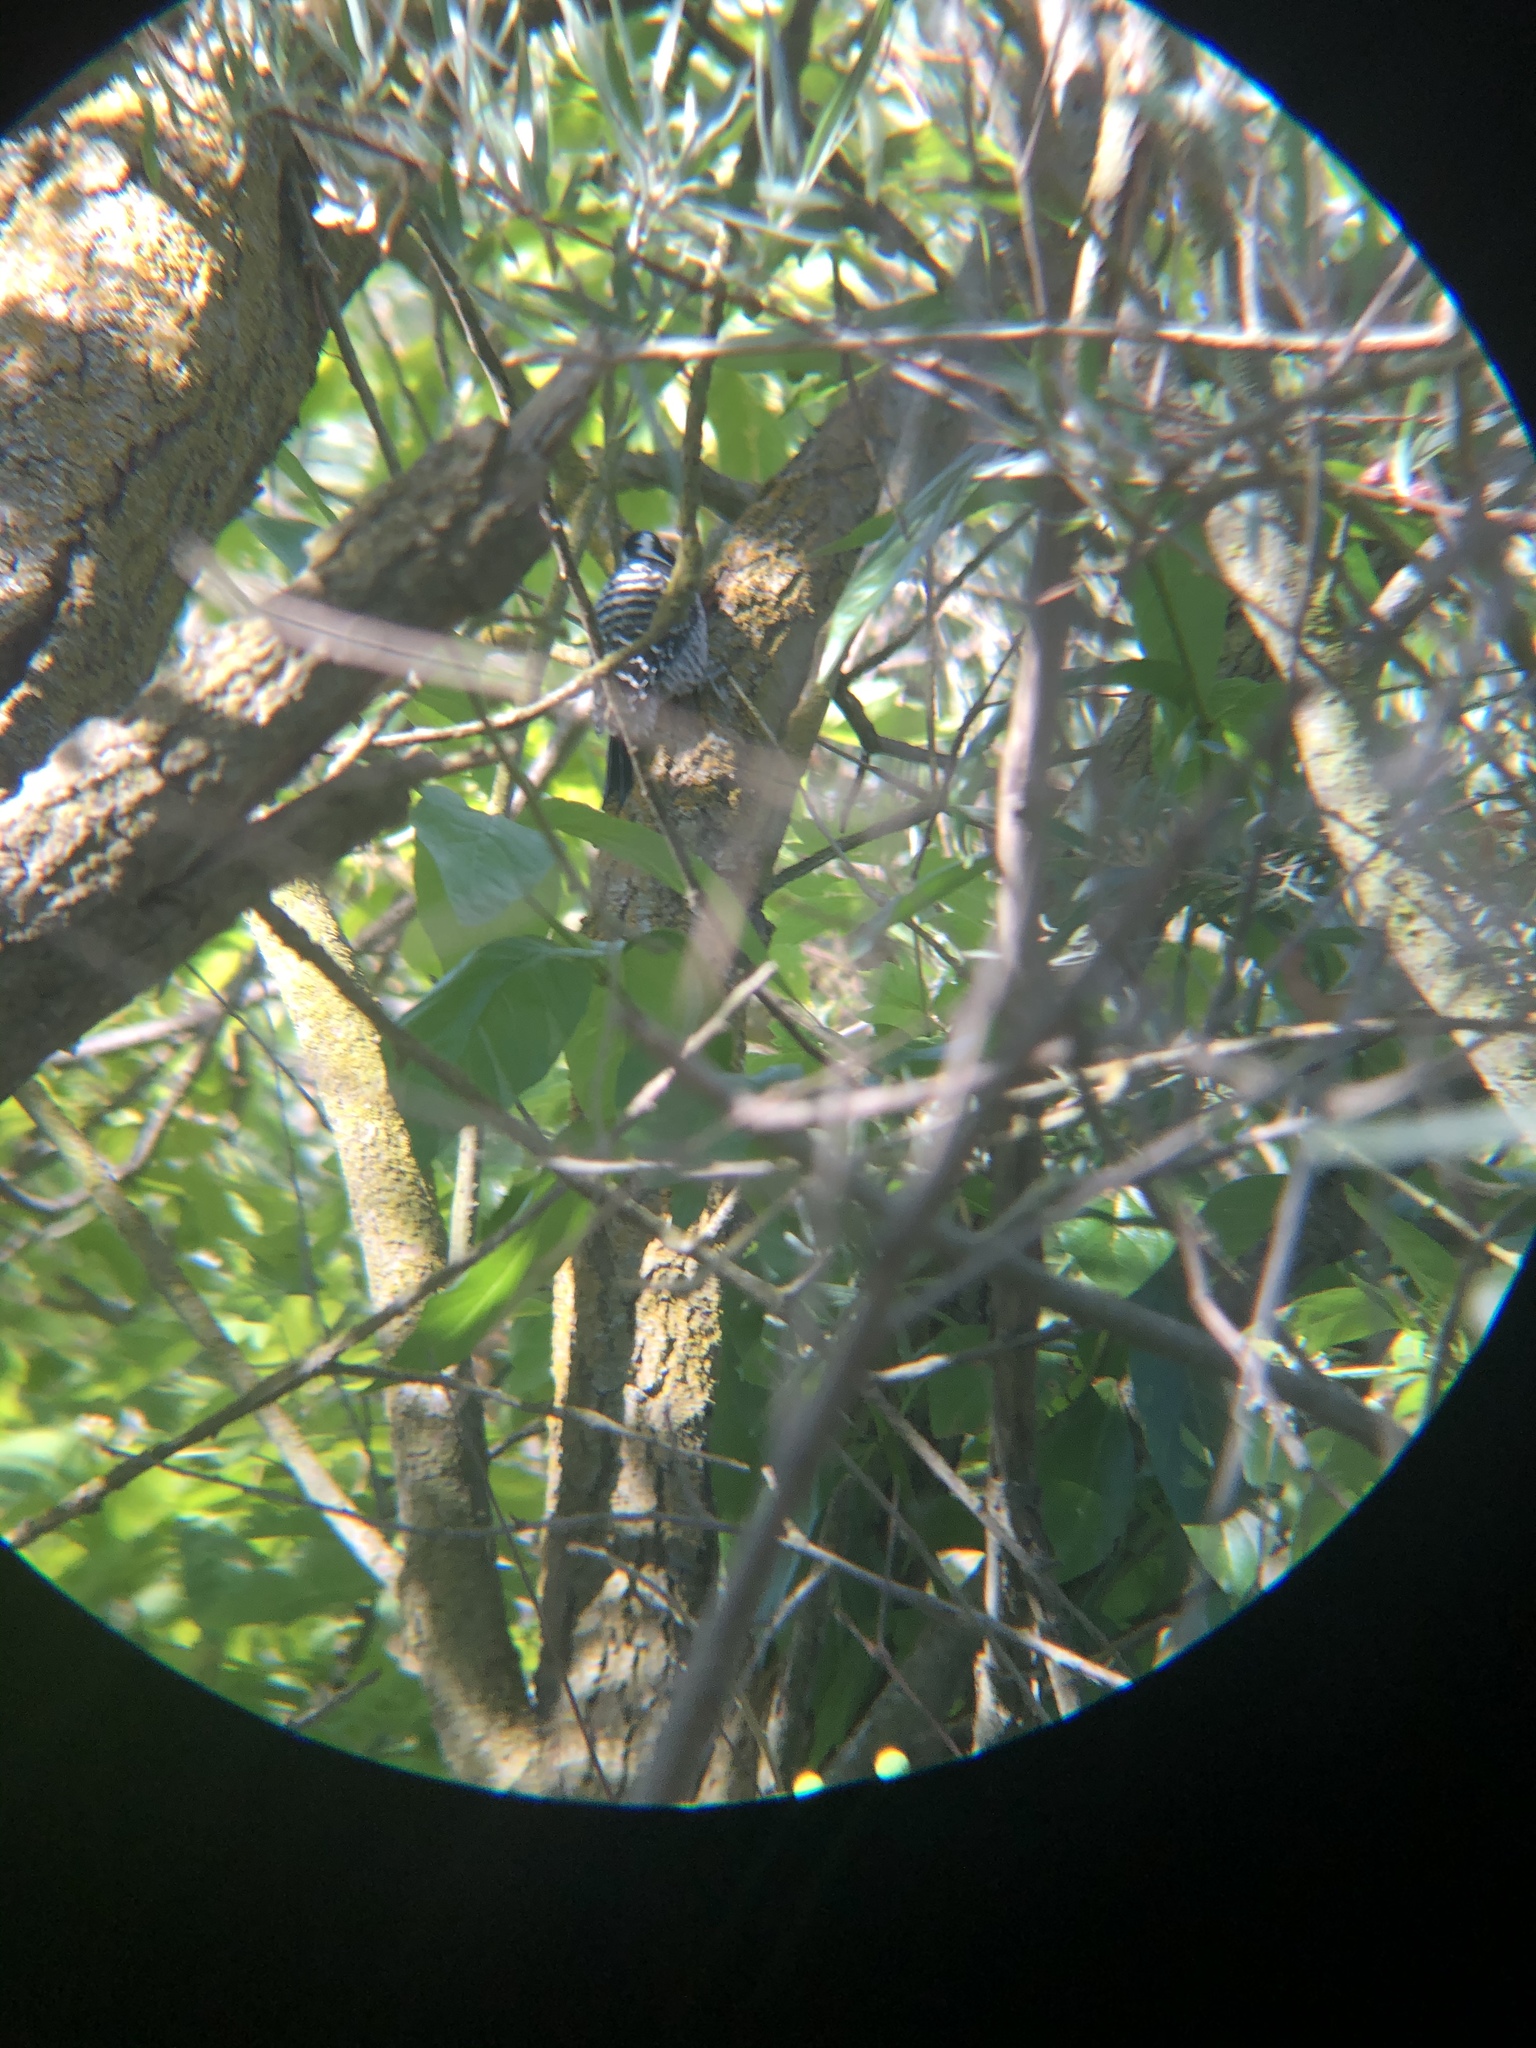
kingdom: Animalia
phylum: Chordata
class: Aves
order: Piciformes
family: Picidae
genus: Dryobates
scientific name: Dryobates nuttallii
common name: Nuttall's woodpecker
